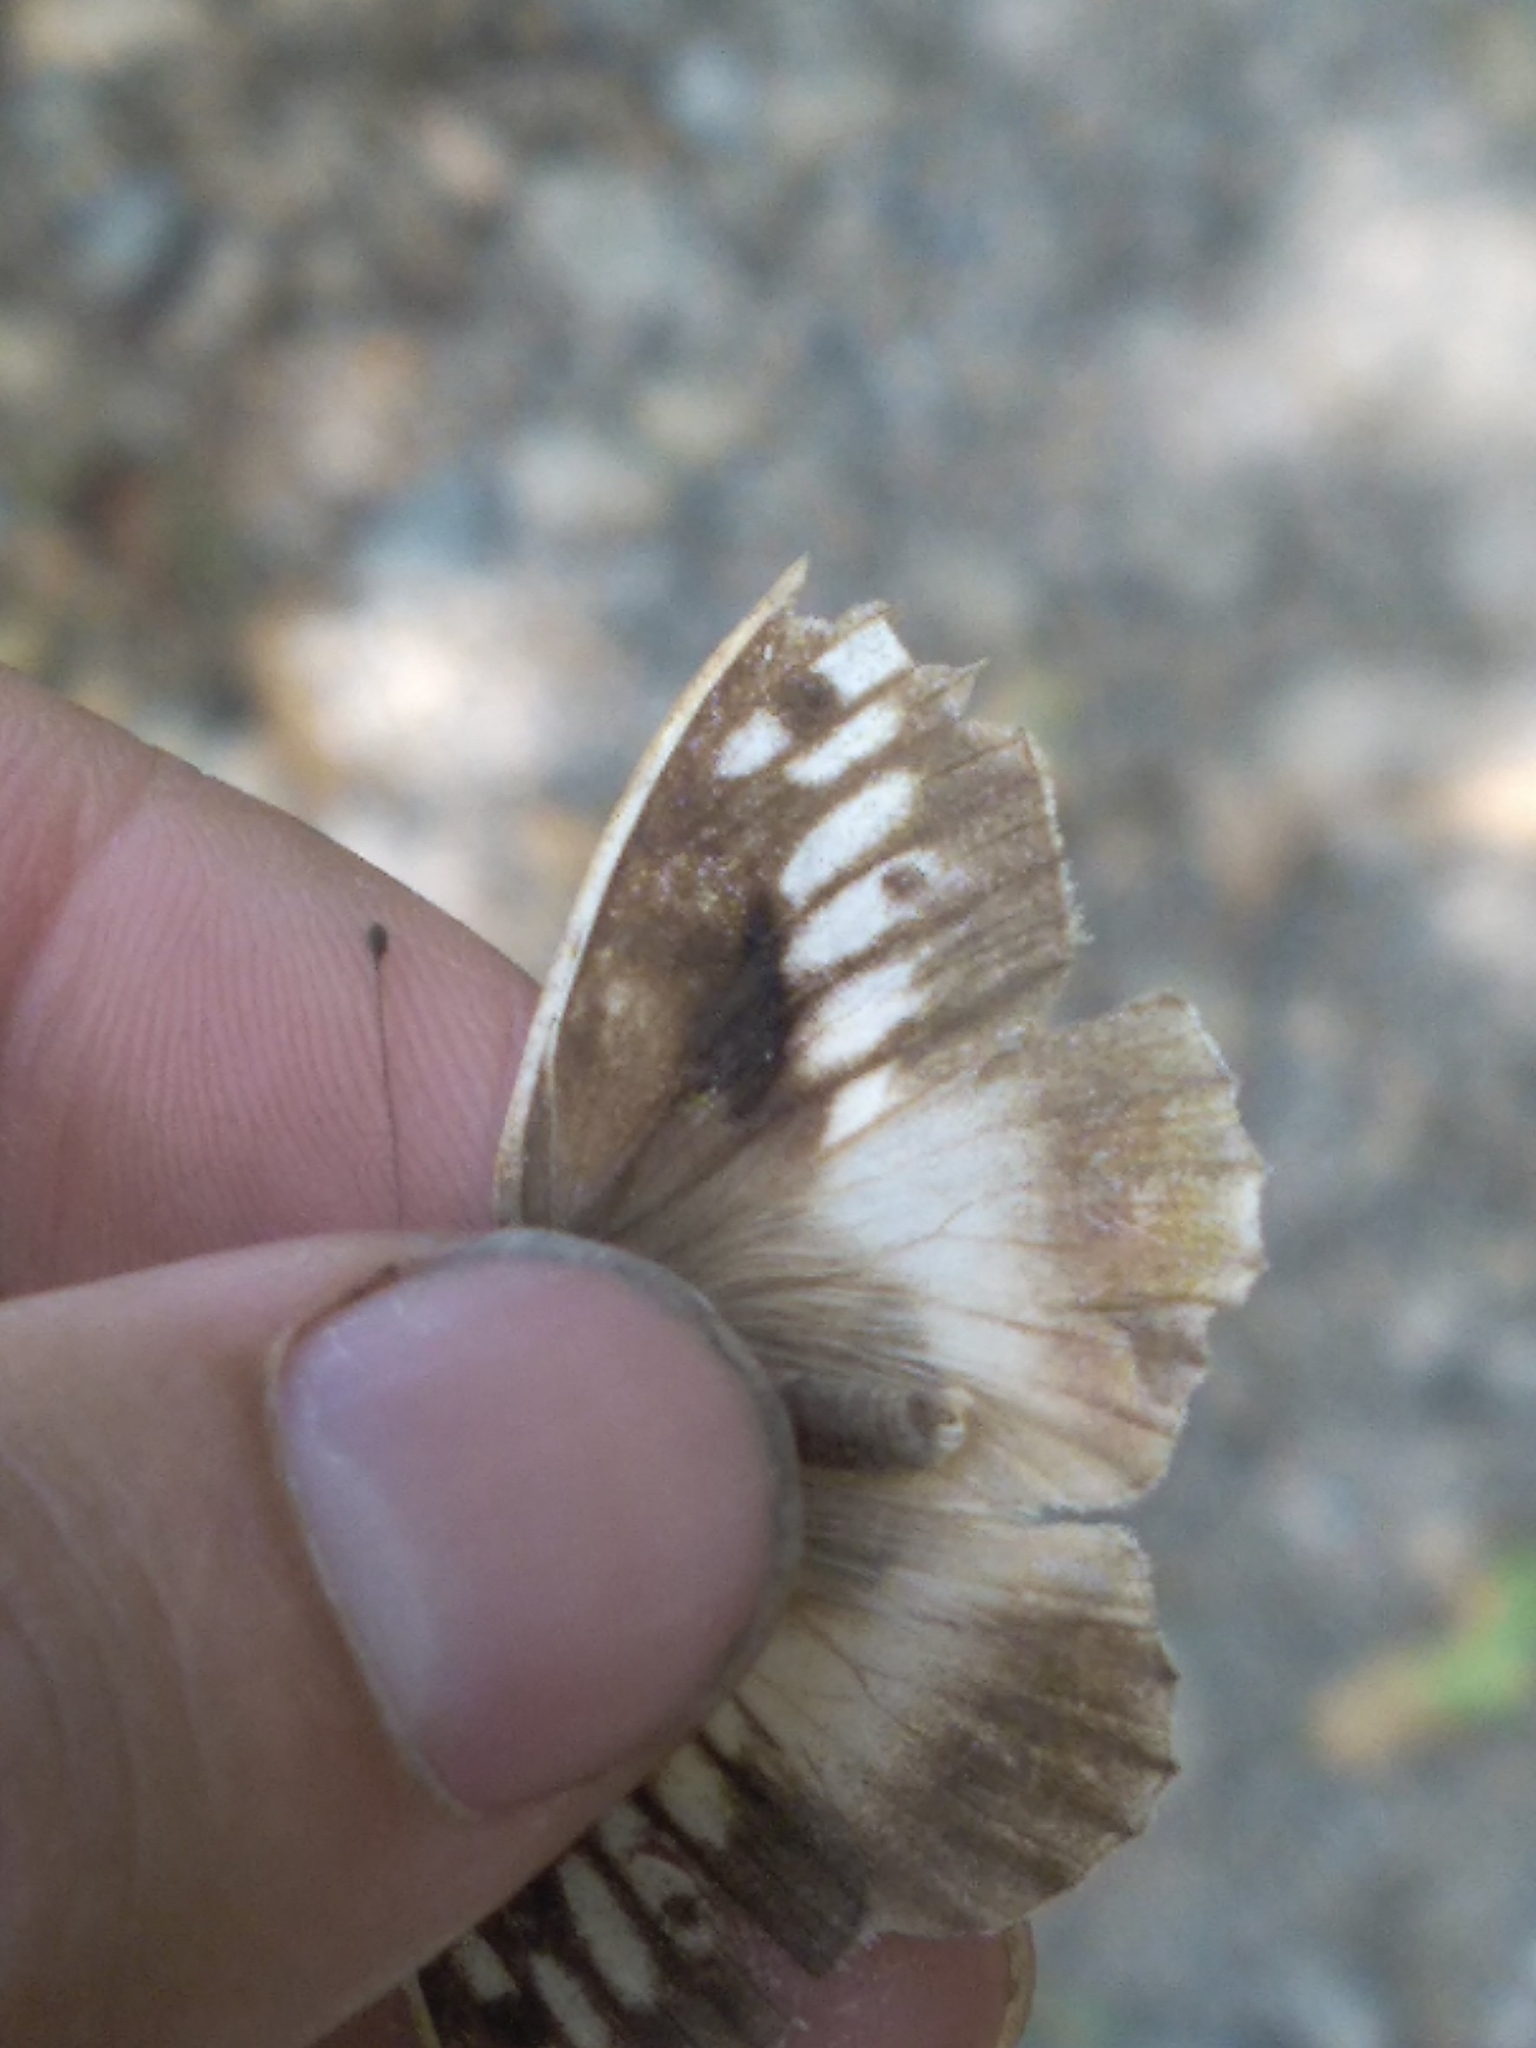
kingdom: Animalia
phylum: Arthropoda
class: Insecta
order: Lepidoptera
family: Nymphalidae
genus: Satyrus
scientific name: Satyrus briseis
